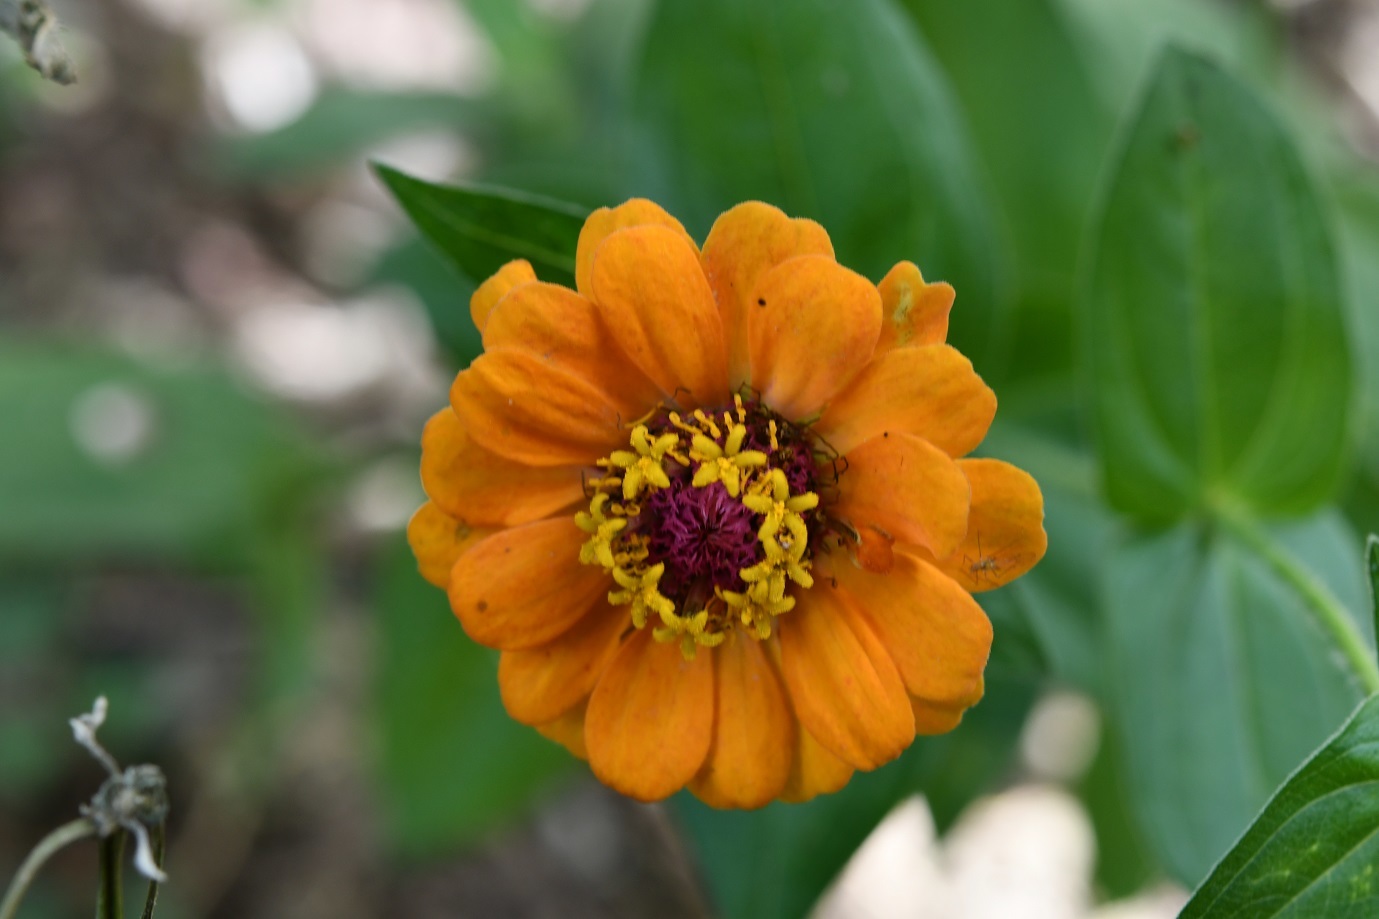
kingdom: Plantae
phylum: Tracheophyta
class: Magnoliopsida
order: Asterales
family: Asteraceae
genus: Zinnia
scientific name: Zinnia elegans
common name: Youth-and-age
